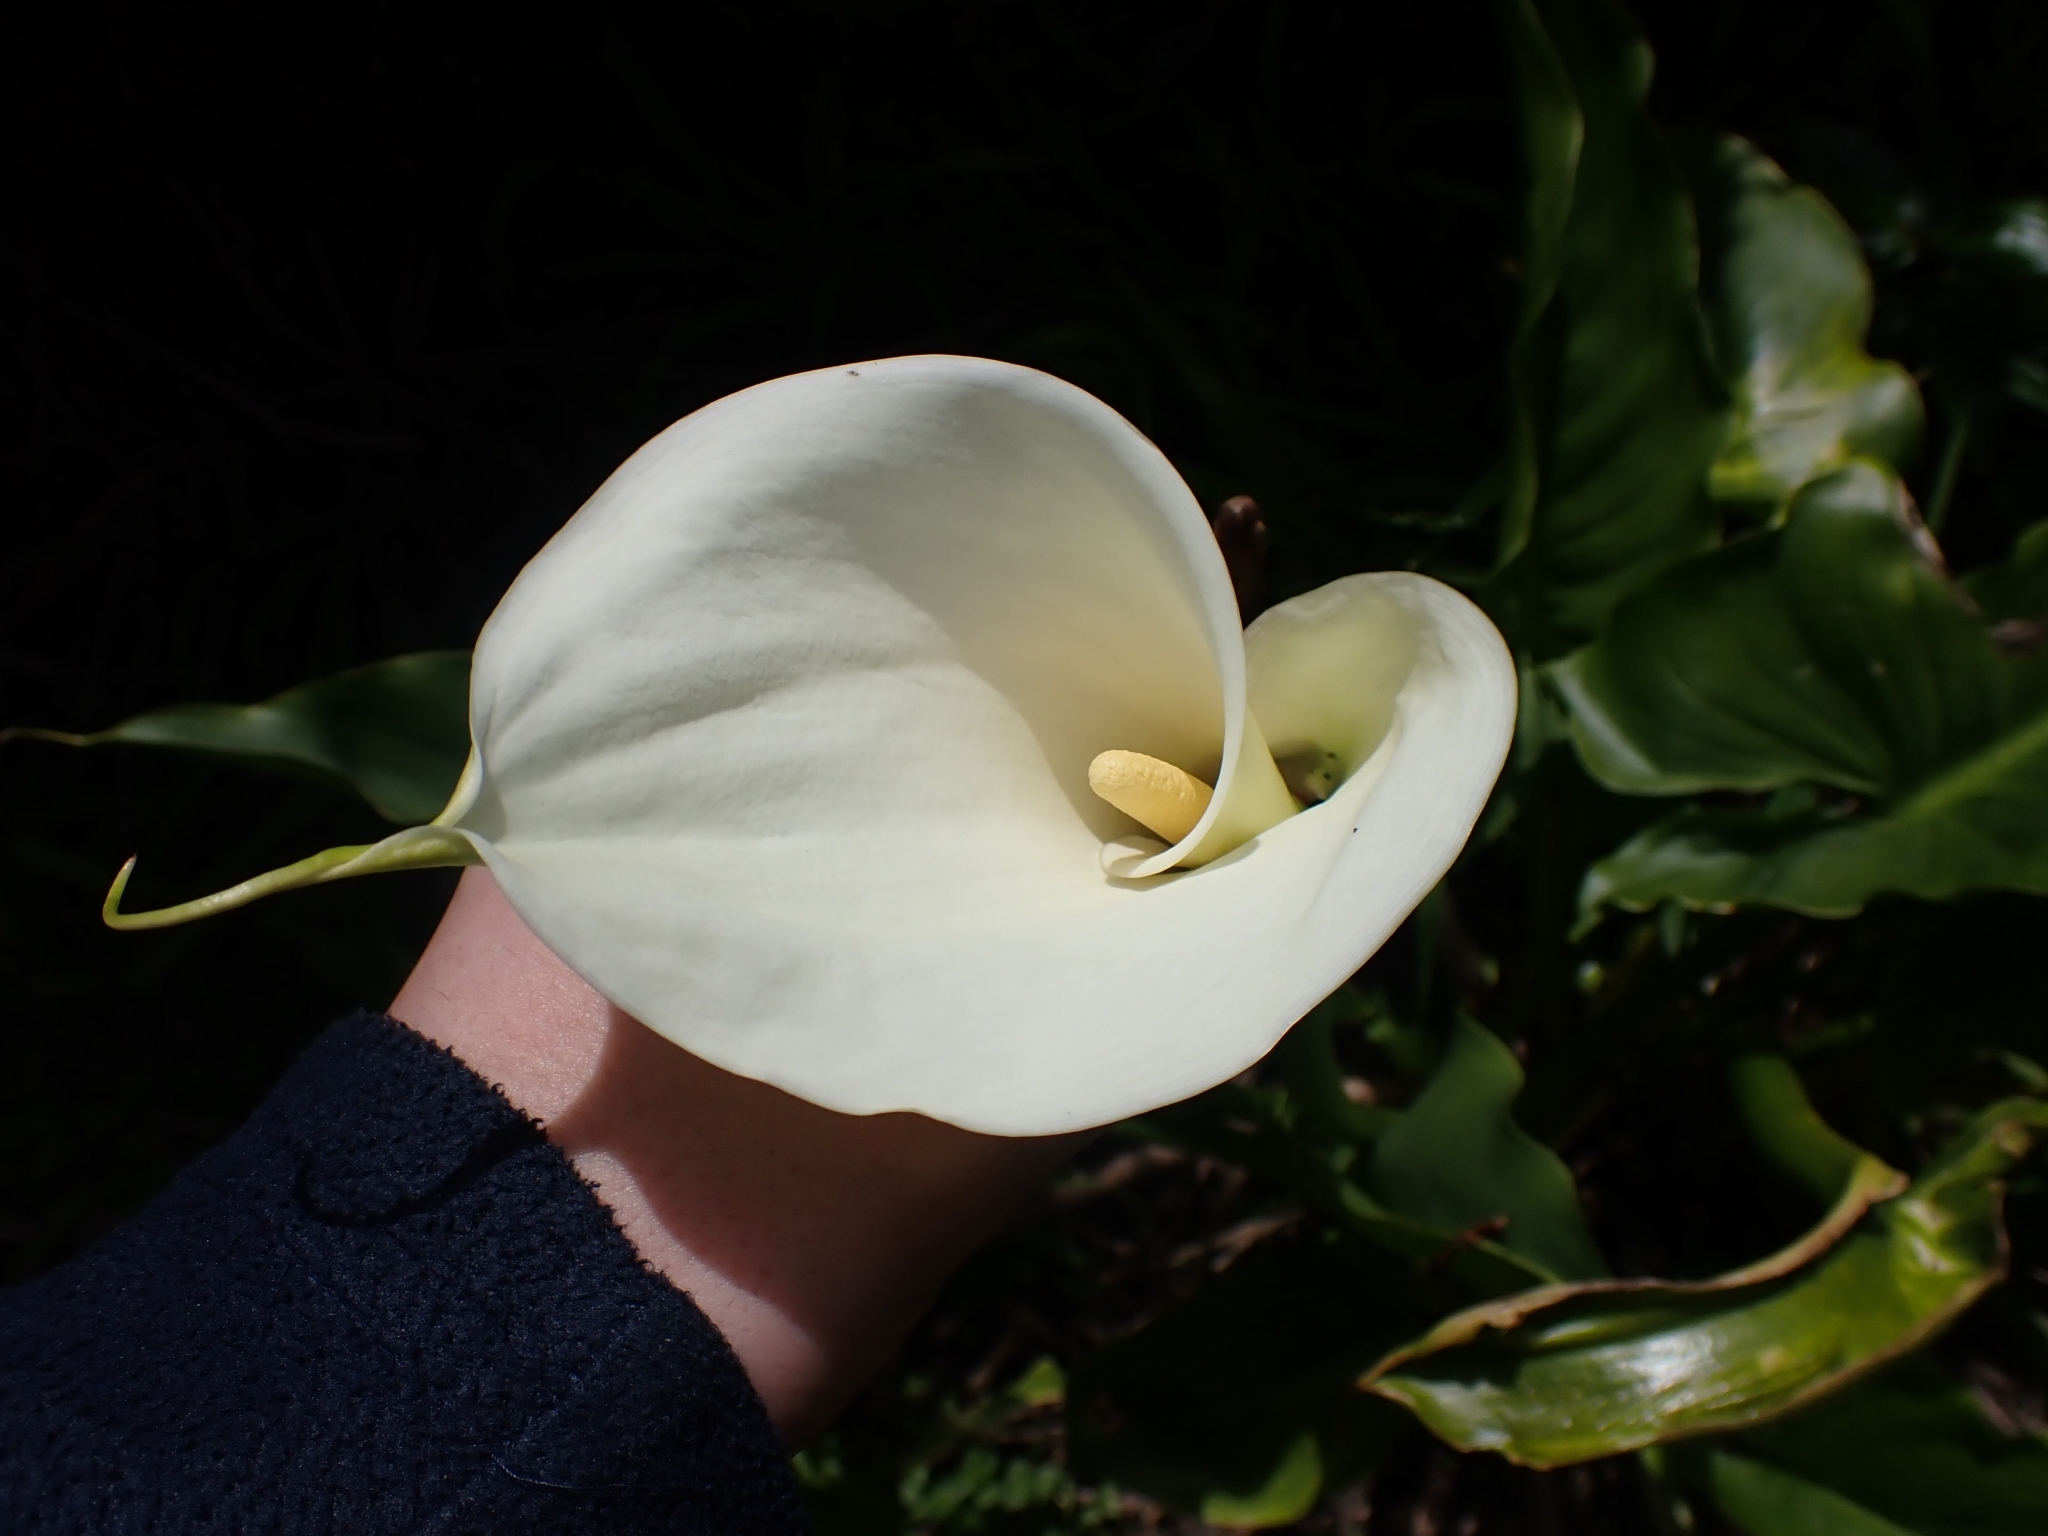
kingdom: Plantae
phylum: Tracheophyta
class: Liliopsida
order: Alismatales
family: Araceae
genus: Zantedeschia
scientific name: Zantedeschia aethiopica
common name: Altar-lily
